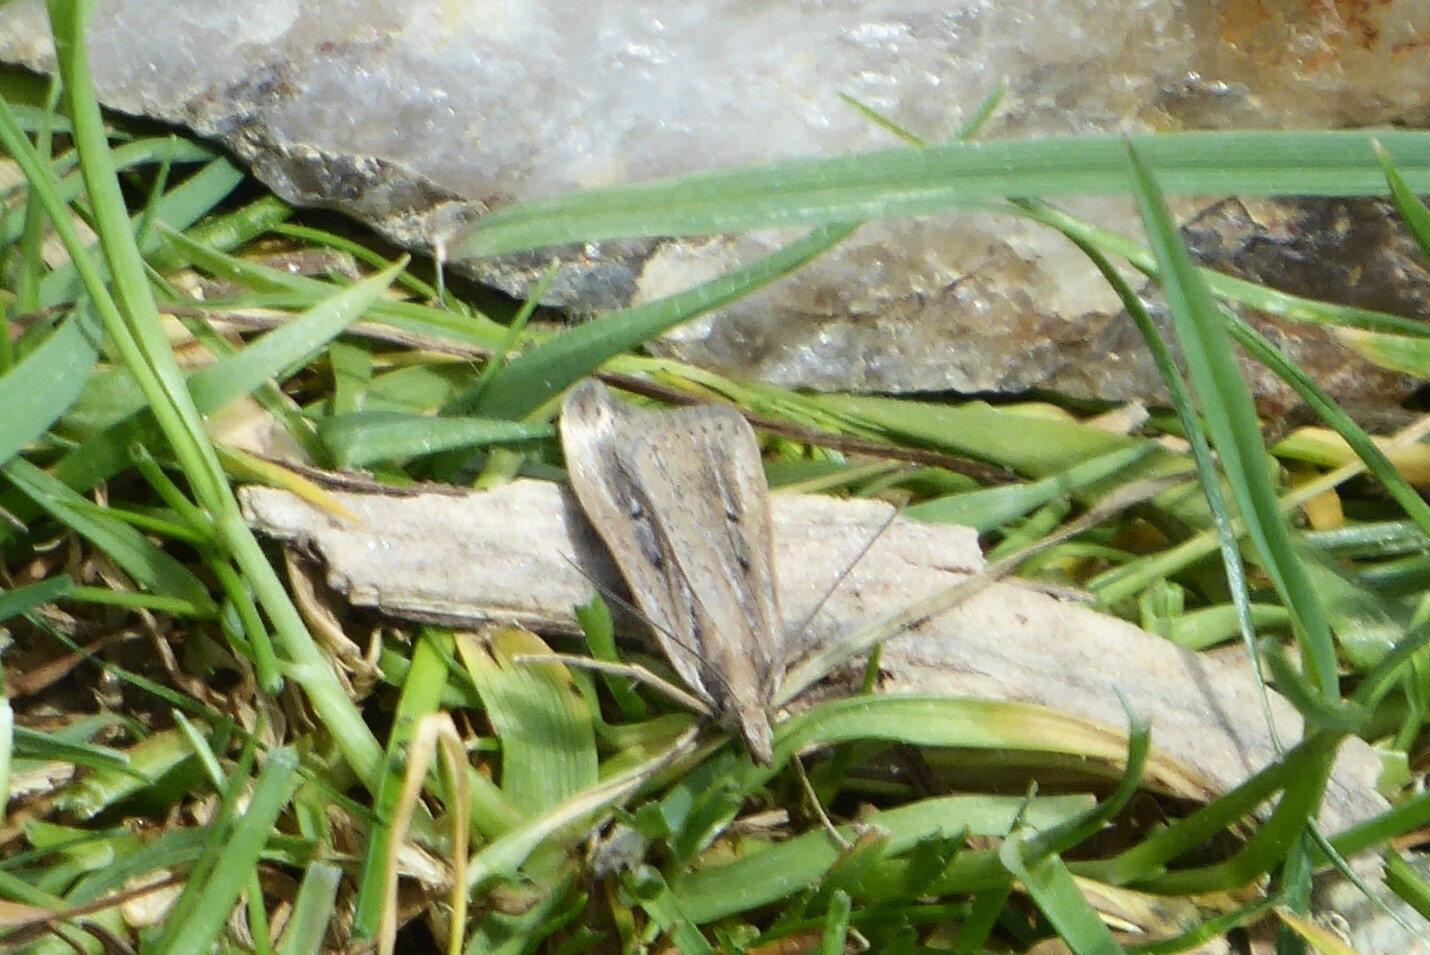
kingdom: Animalia
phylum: Arthropoda
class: Insecta
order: Lepidoptera
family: Crambidae
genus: Eudonia
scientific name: Eudonia sabulosella
